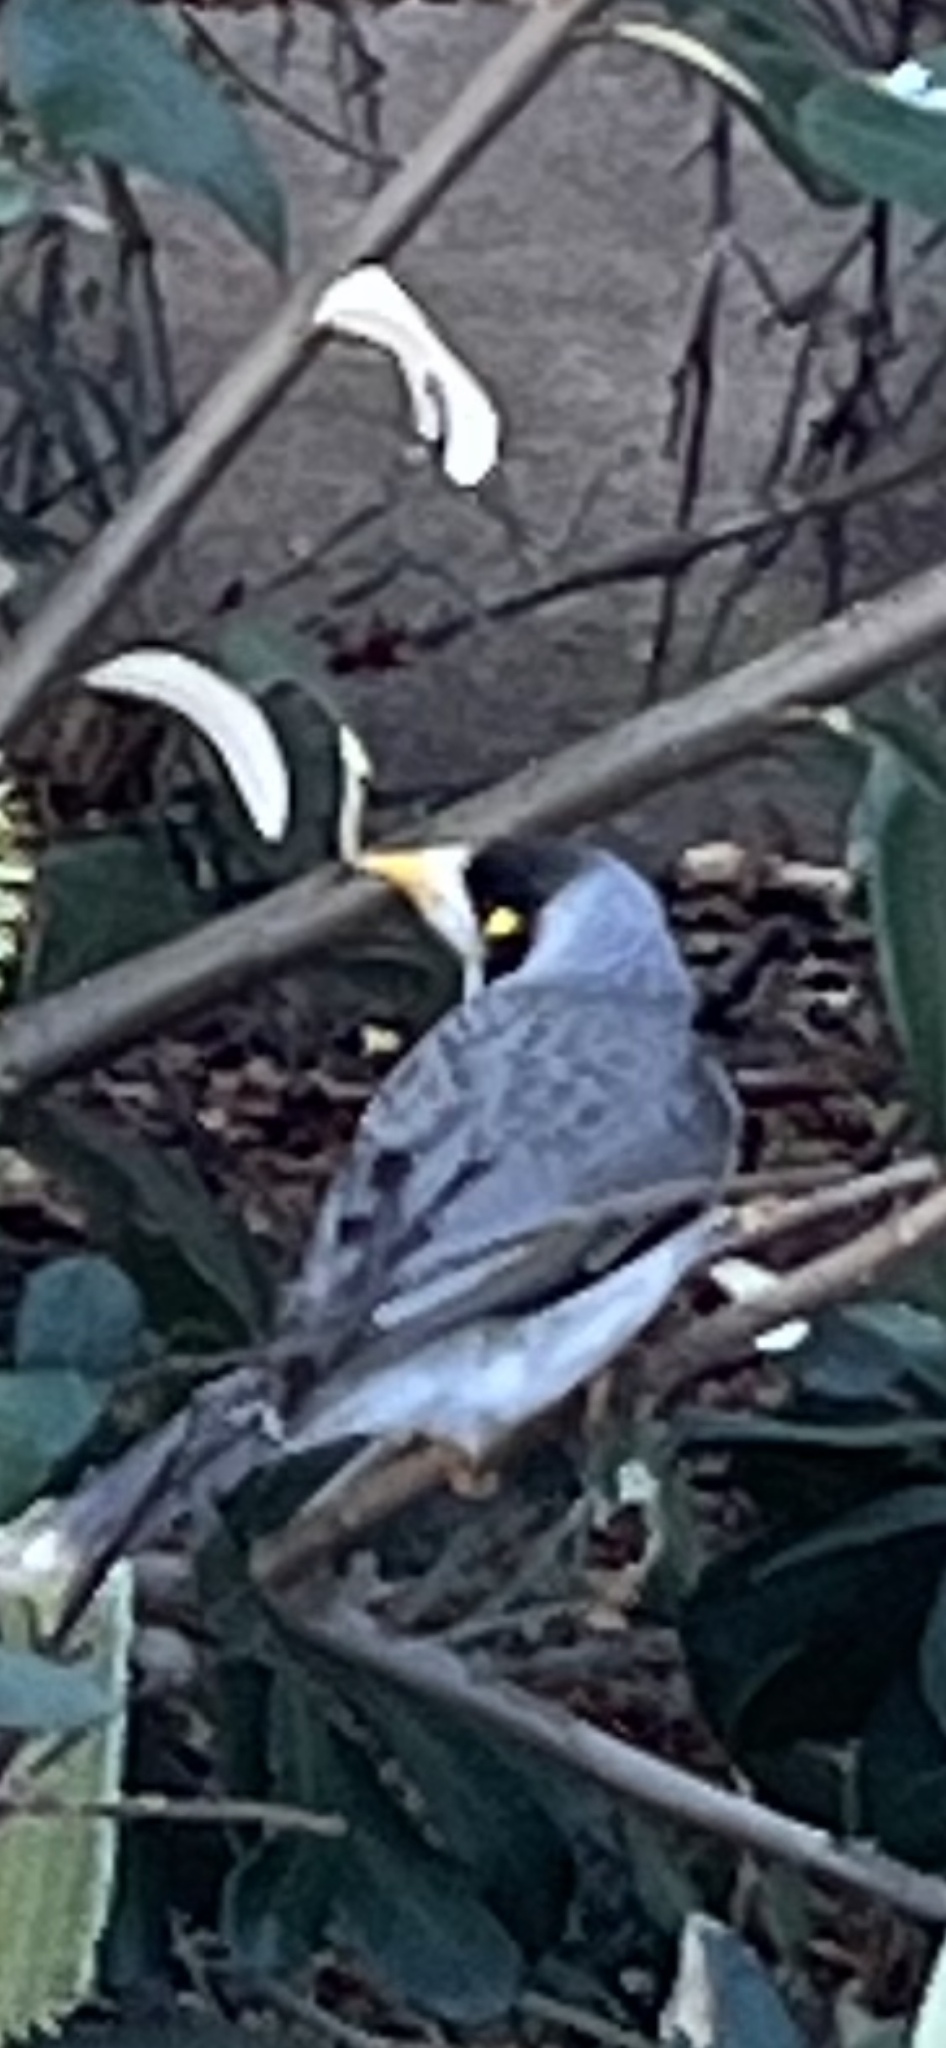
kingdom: Animalia
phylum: Chordata
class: Aves
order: Passeriformes
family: Meliphagidae
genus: Manorina
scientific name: Manorina melanocephala
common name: Noisy miner
